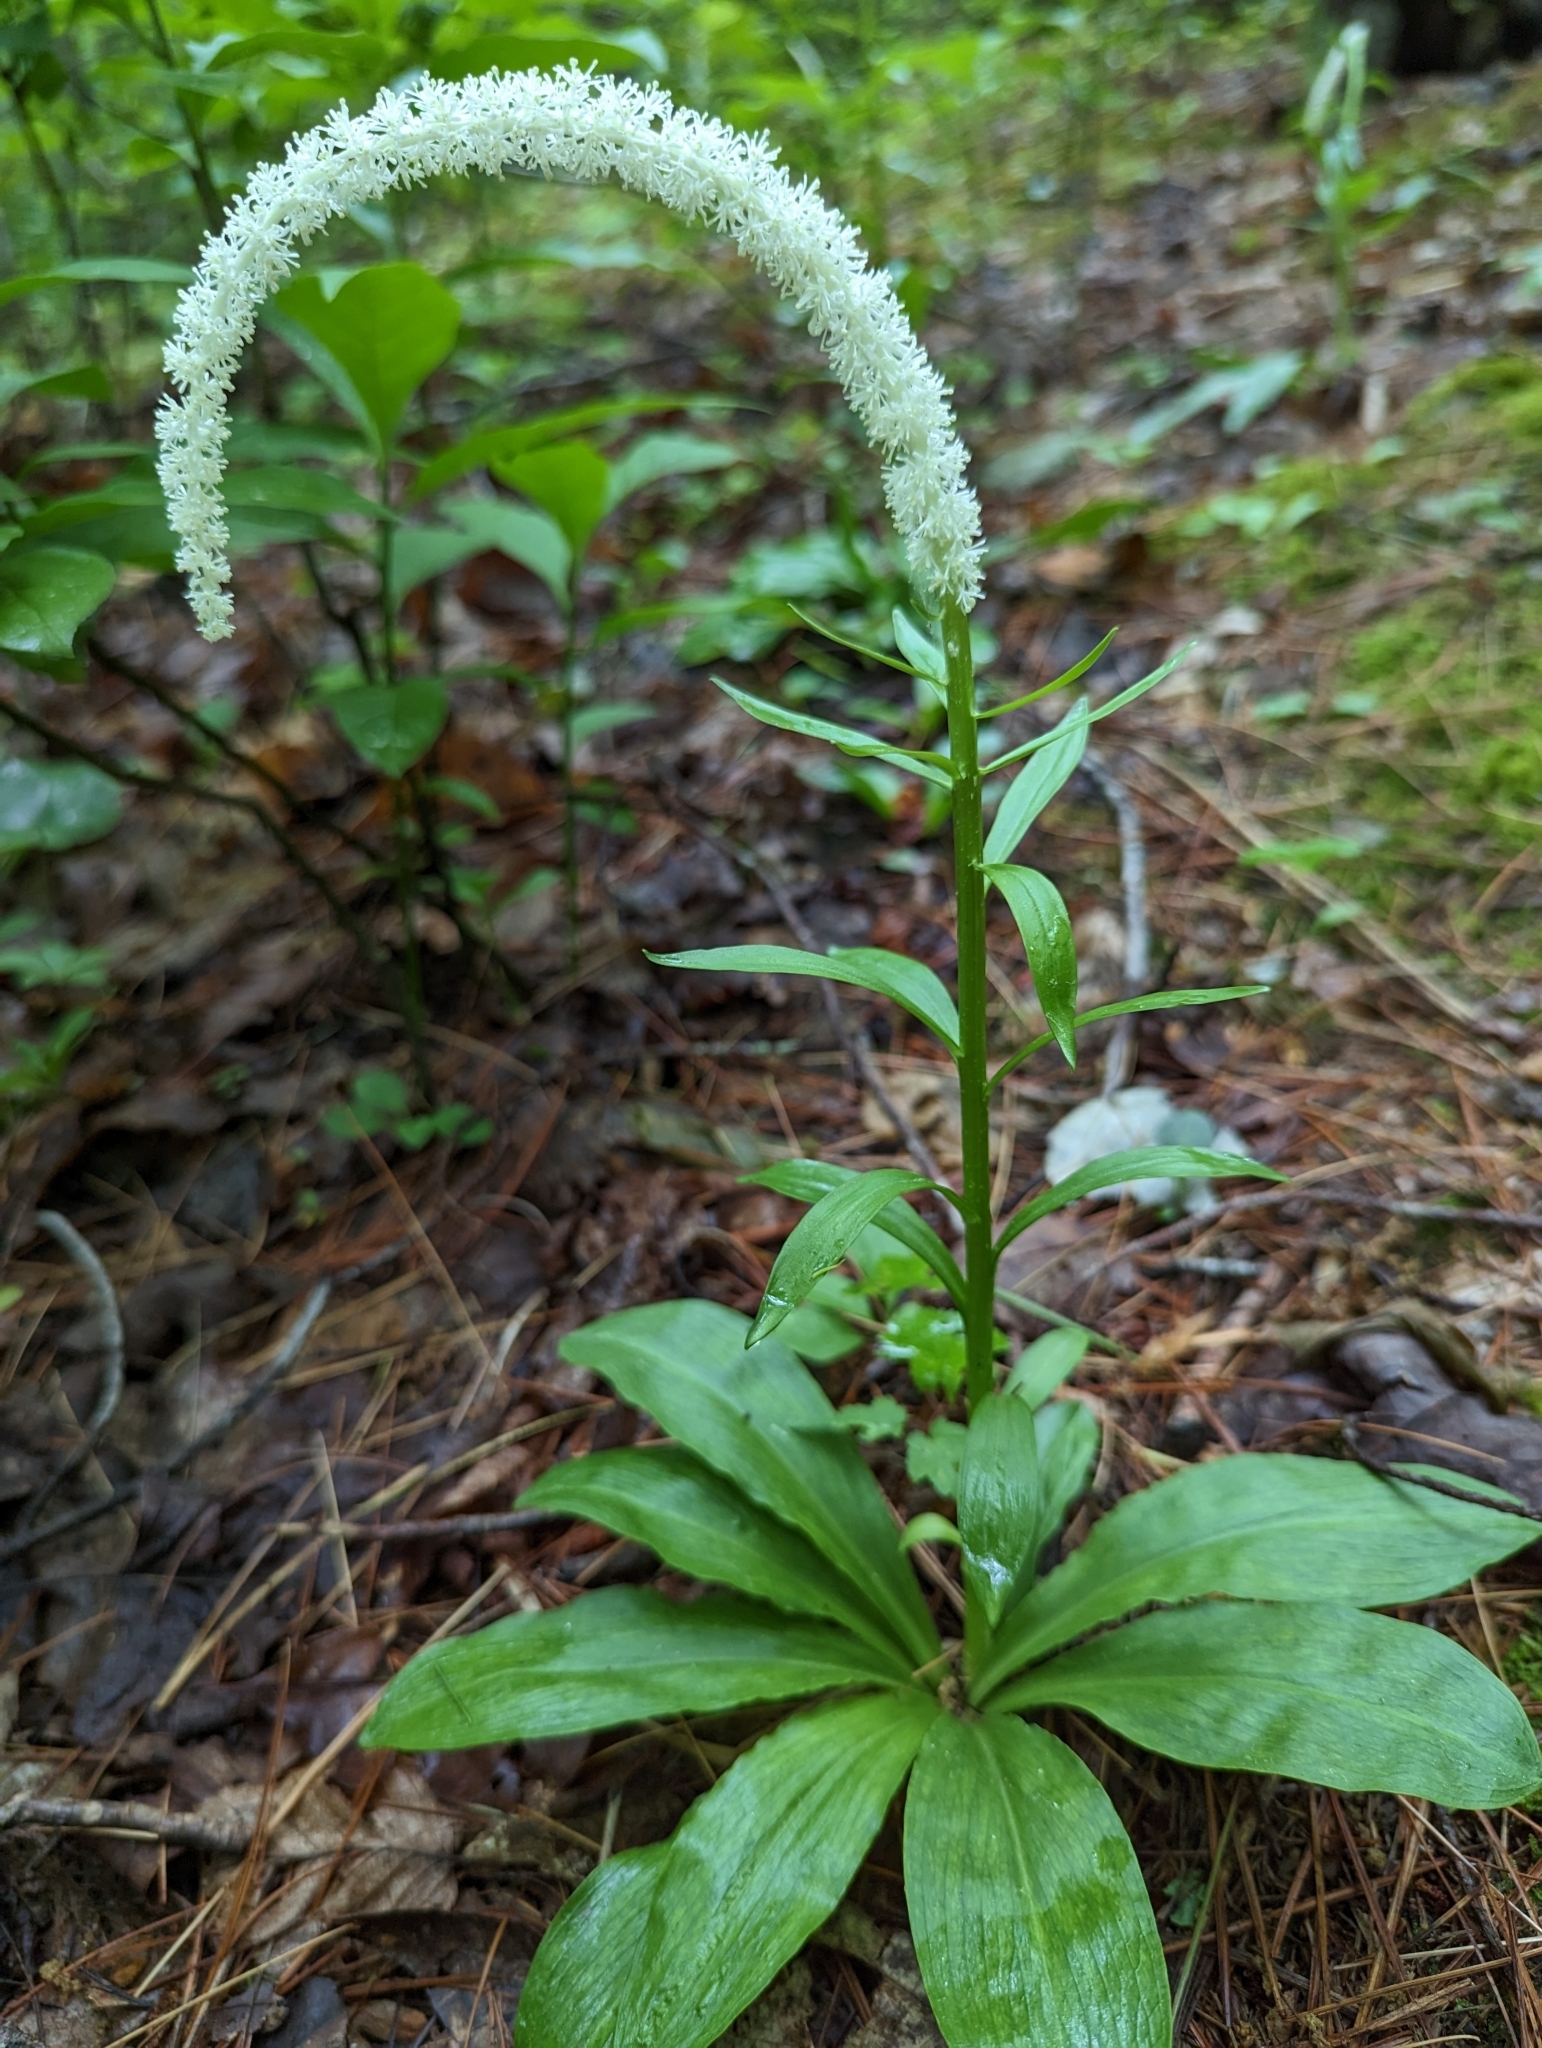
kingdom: Plantae
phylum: Tracheophyta
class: Liliopsida
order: Liliales
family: Melanthiaceae
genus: Chamaelirium
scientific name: Chamaelirium luteum
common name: Fairy-wand
